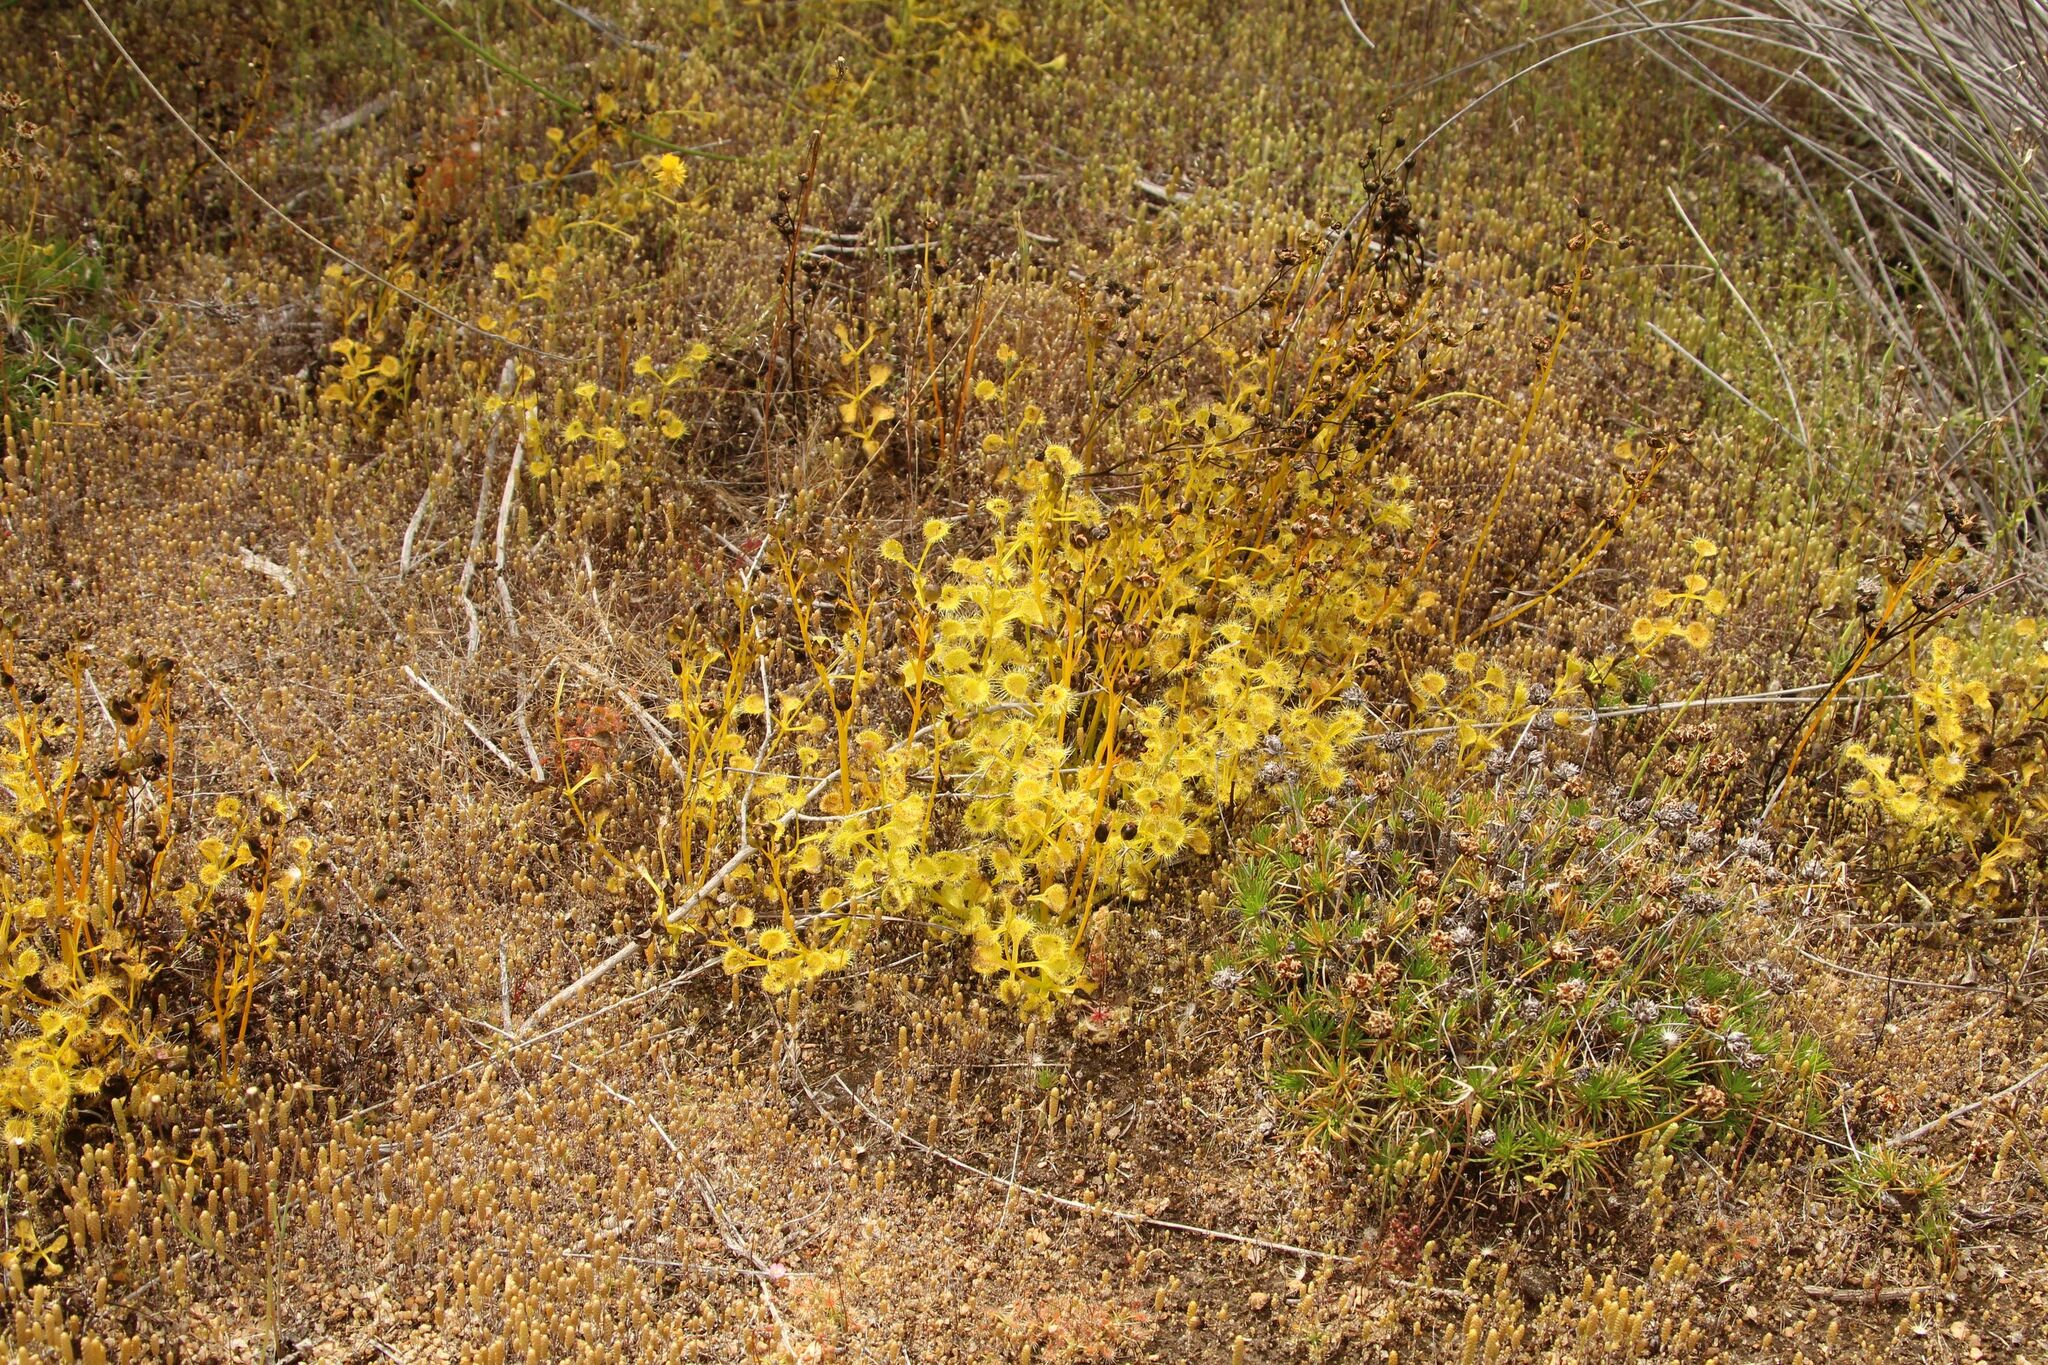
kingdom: Plantae
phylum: Tracheophyta
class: Magnoliopsida
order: Caryophyllales
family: Droseraceae
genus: Drosera
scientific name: Drosera rupicola
